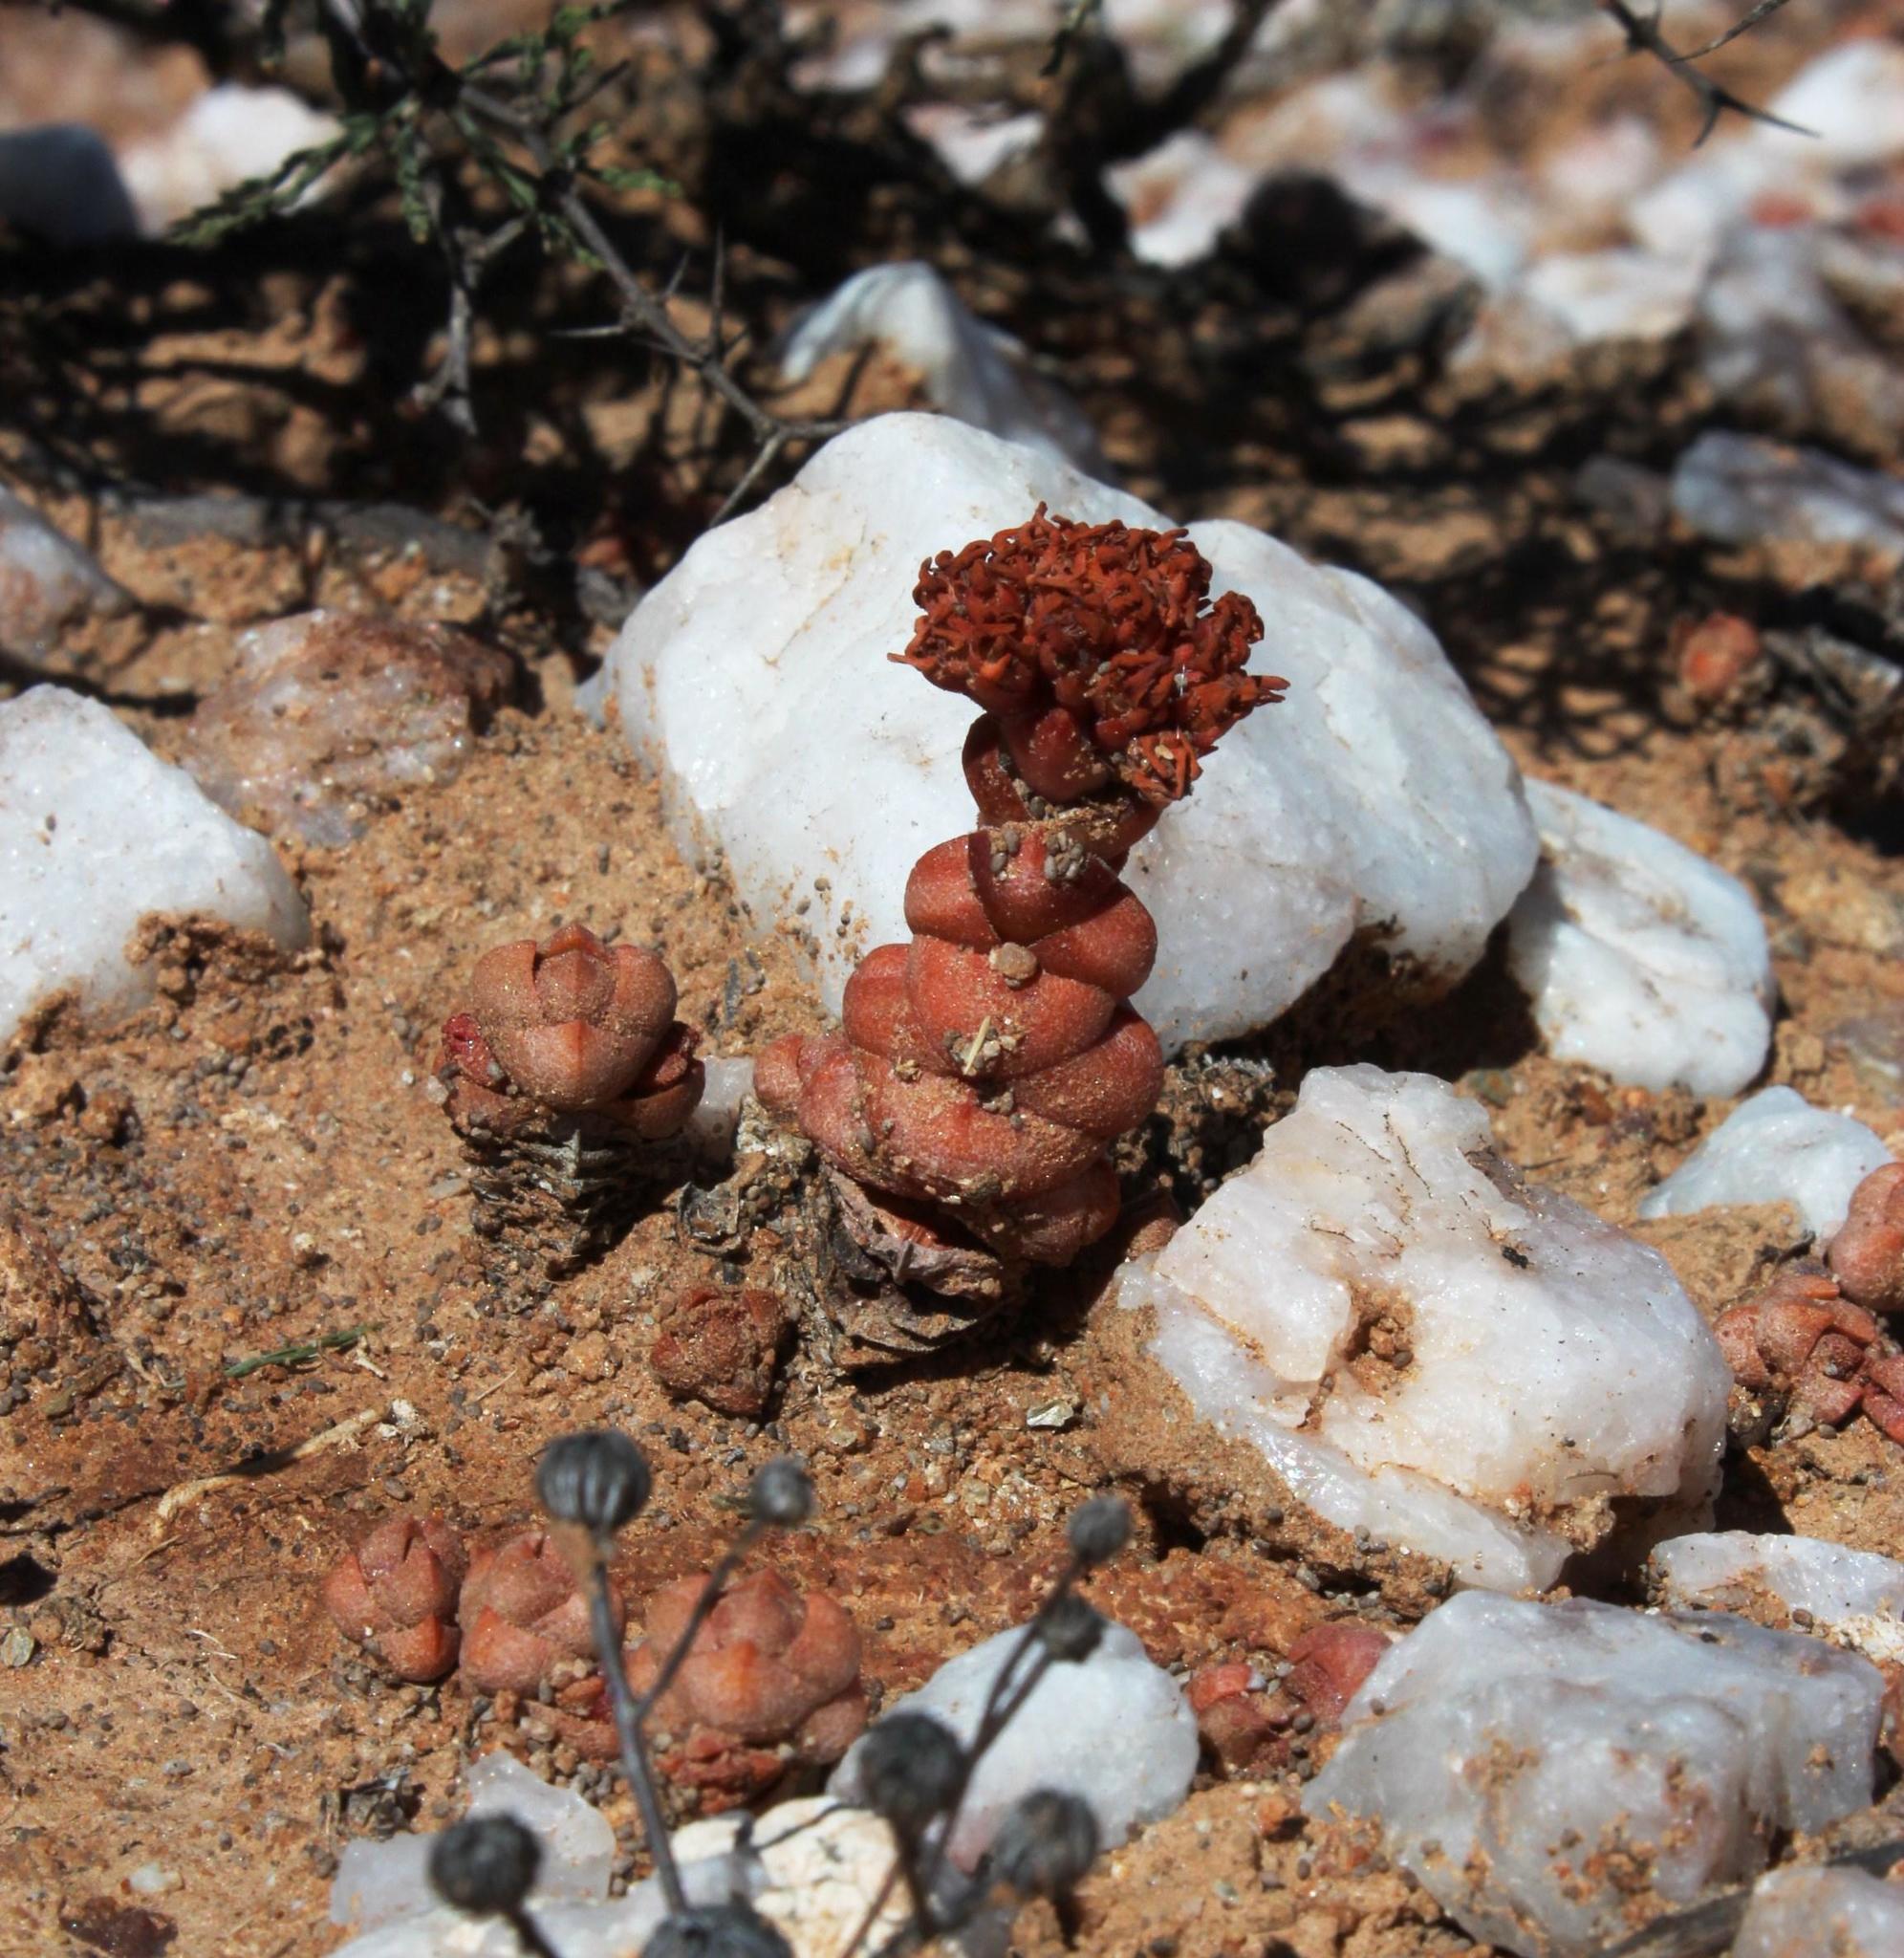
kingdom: Plantae
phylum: Tracheophyta
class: Magnoliopsida
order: Saxifragales
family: Crassulaceae
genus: Crassula
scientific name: Crassula columnaris
